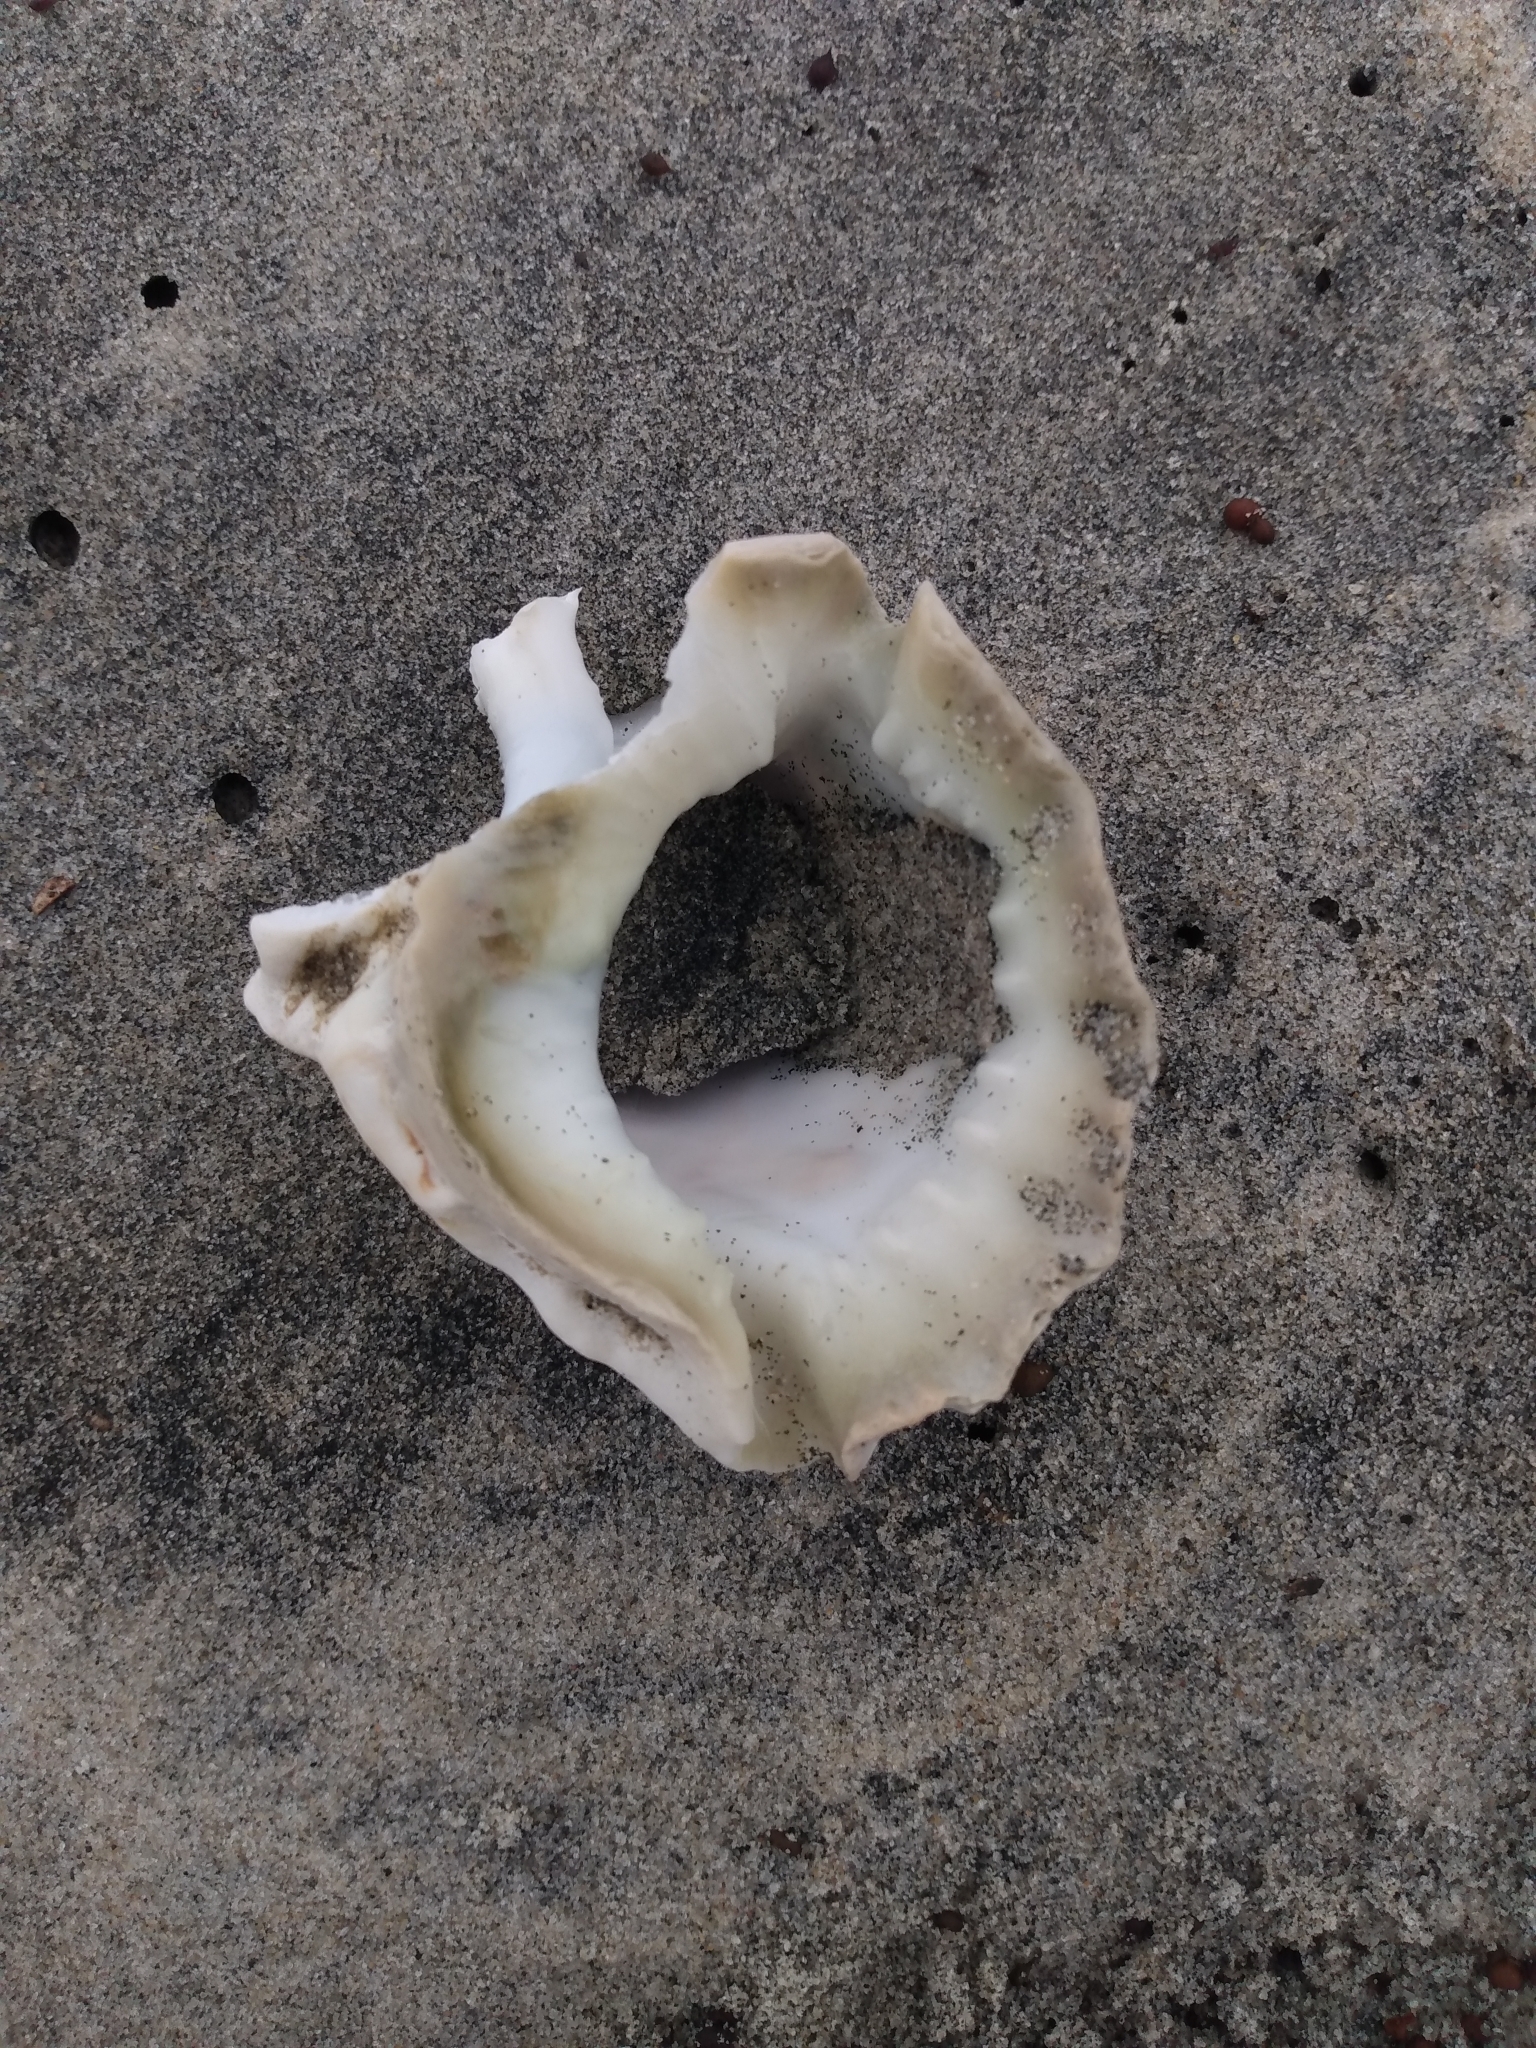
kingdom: Animalia
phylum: Mollusca
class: Gastropoda
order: Littorinimorpha
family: Bursidae
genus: Crossata
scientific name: Crossata californica
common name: California frogsnail
